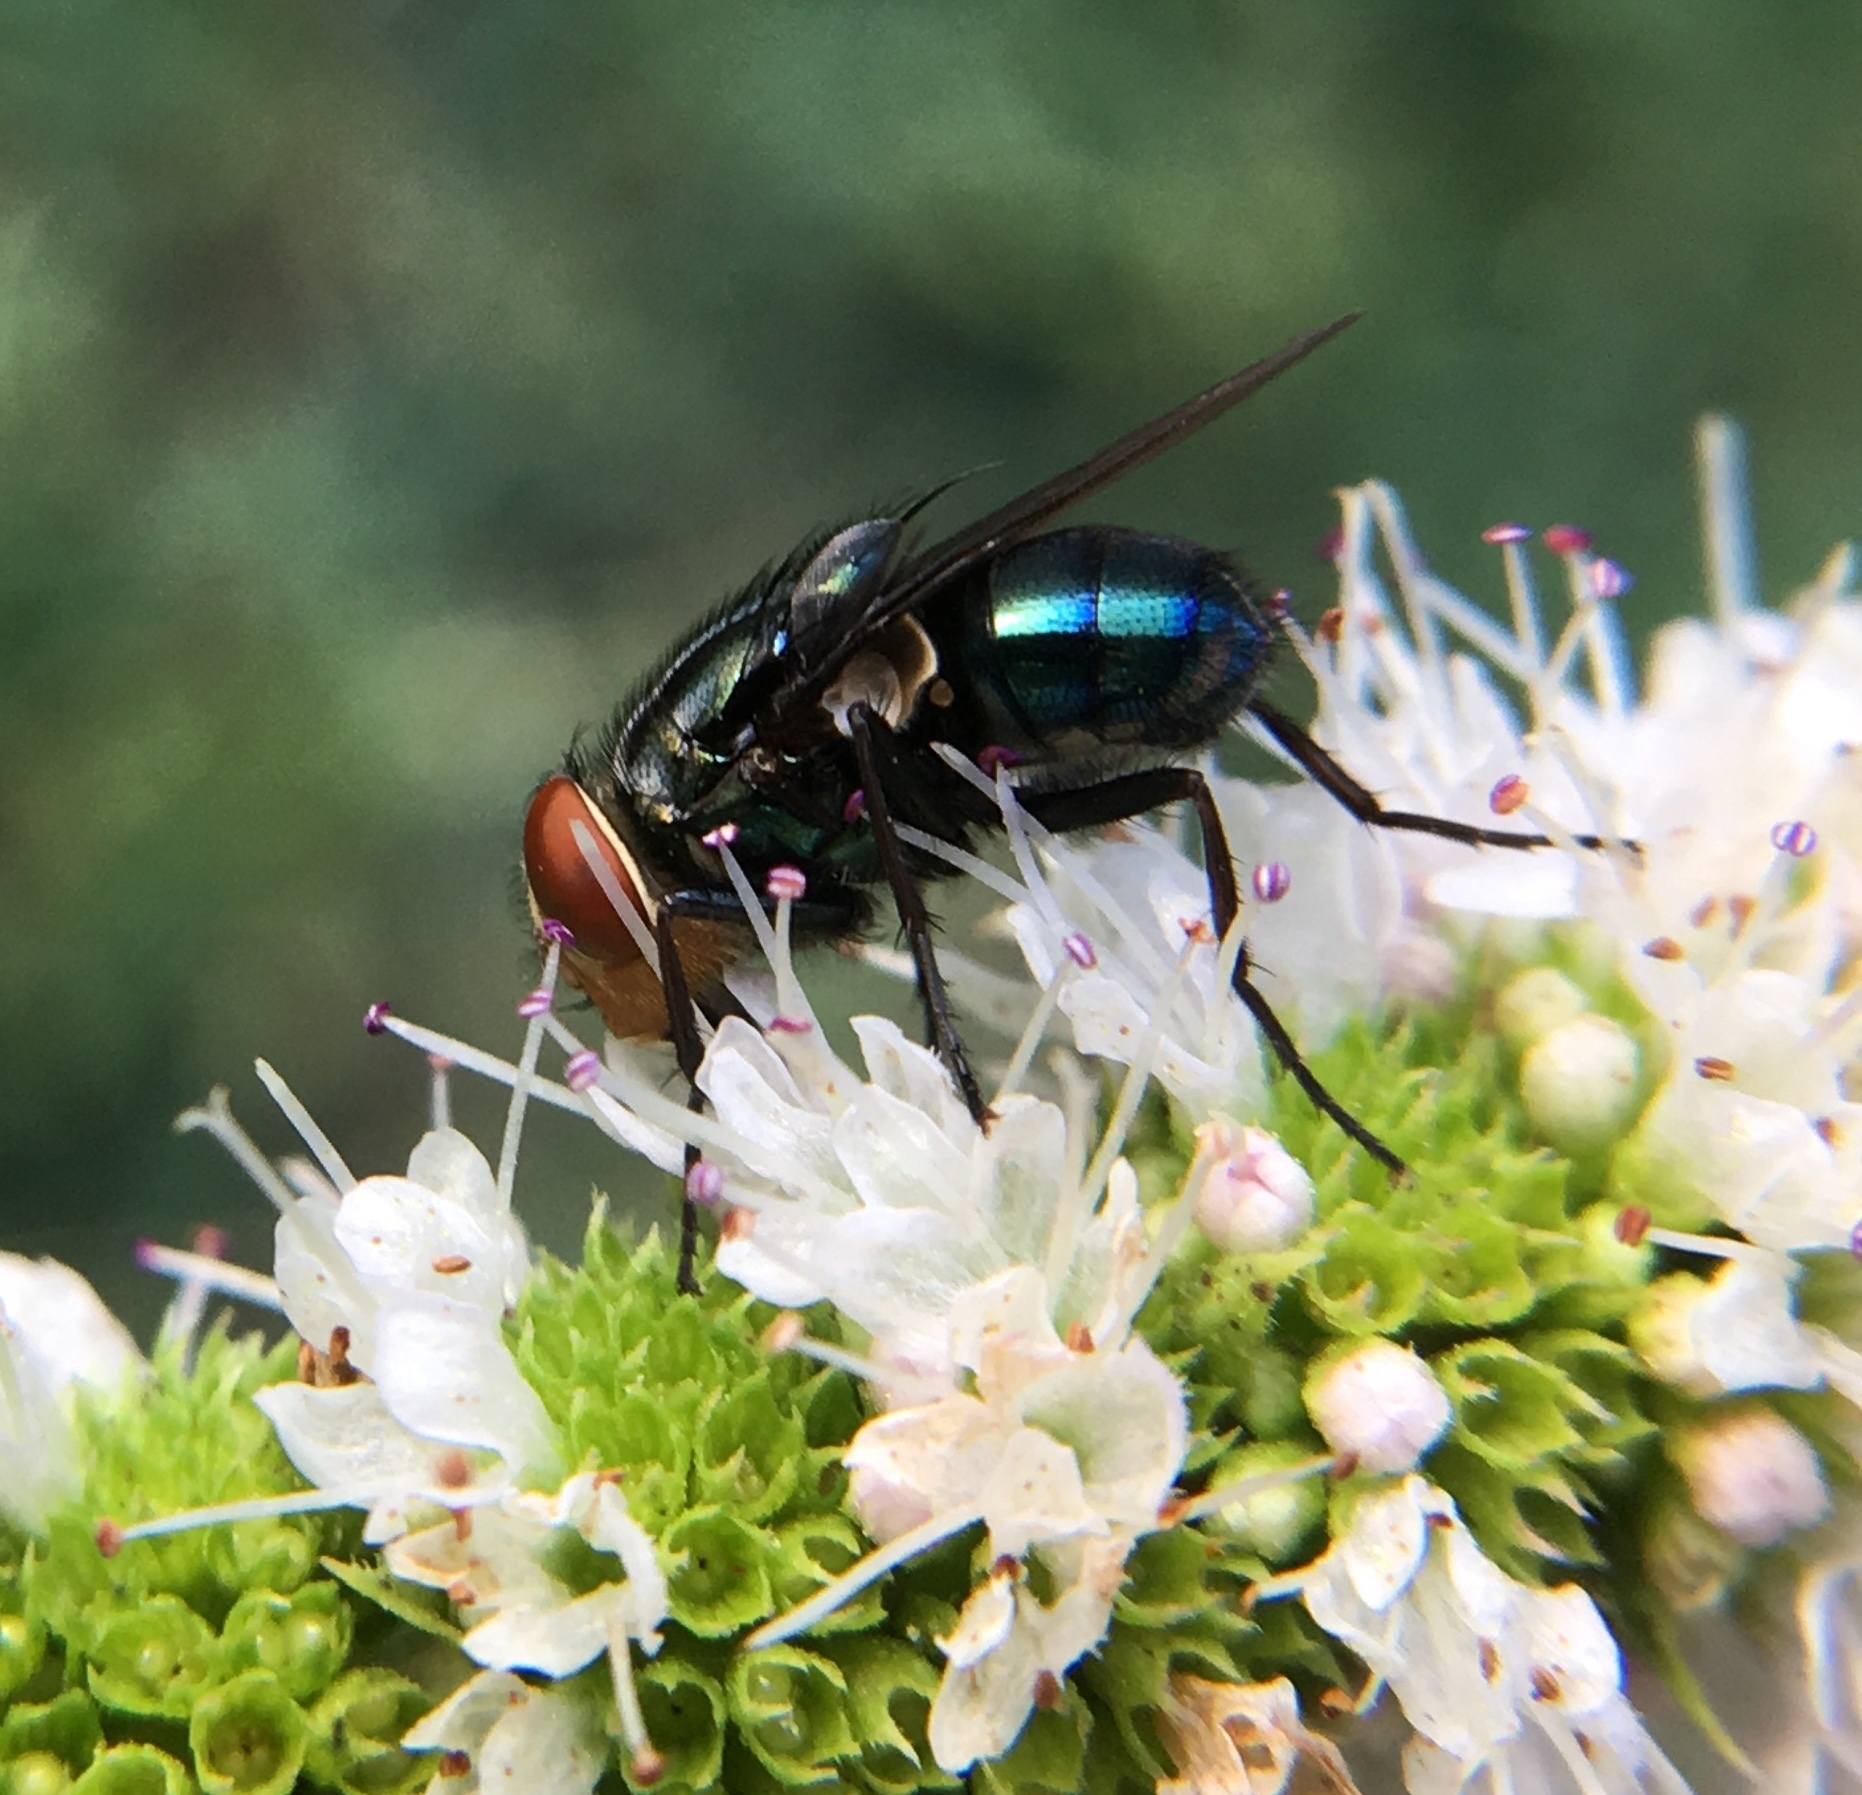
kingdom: Animalia
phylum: Arthropoda
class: Insecta
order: Diptera
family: Calliphoridae
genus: Cochliomyia
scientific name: Cochliomyia macellaria
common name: Secondary screwworm
